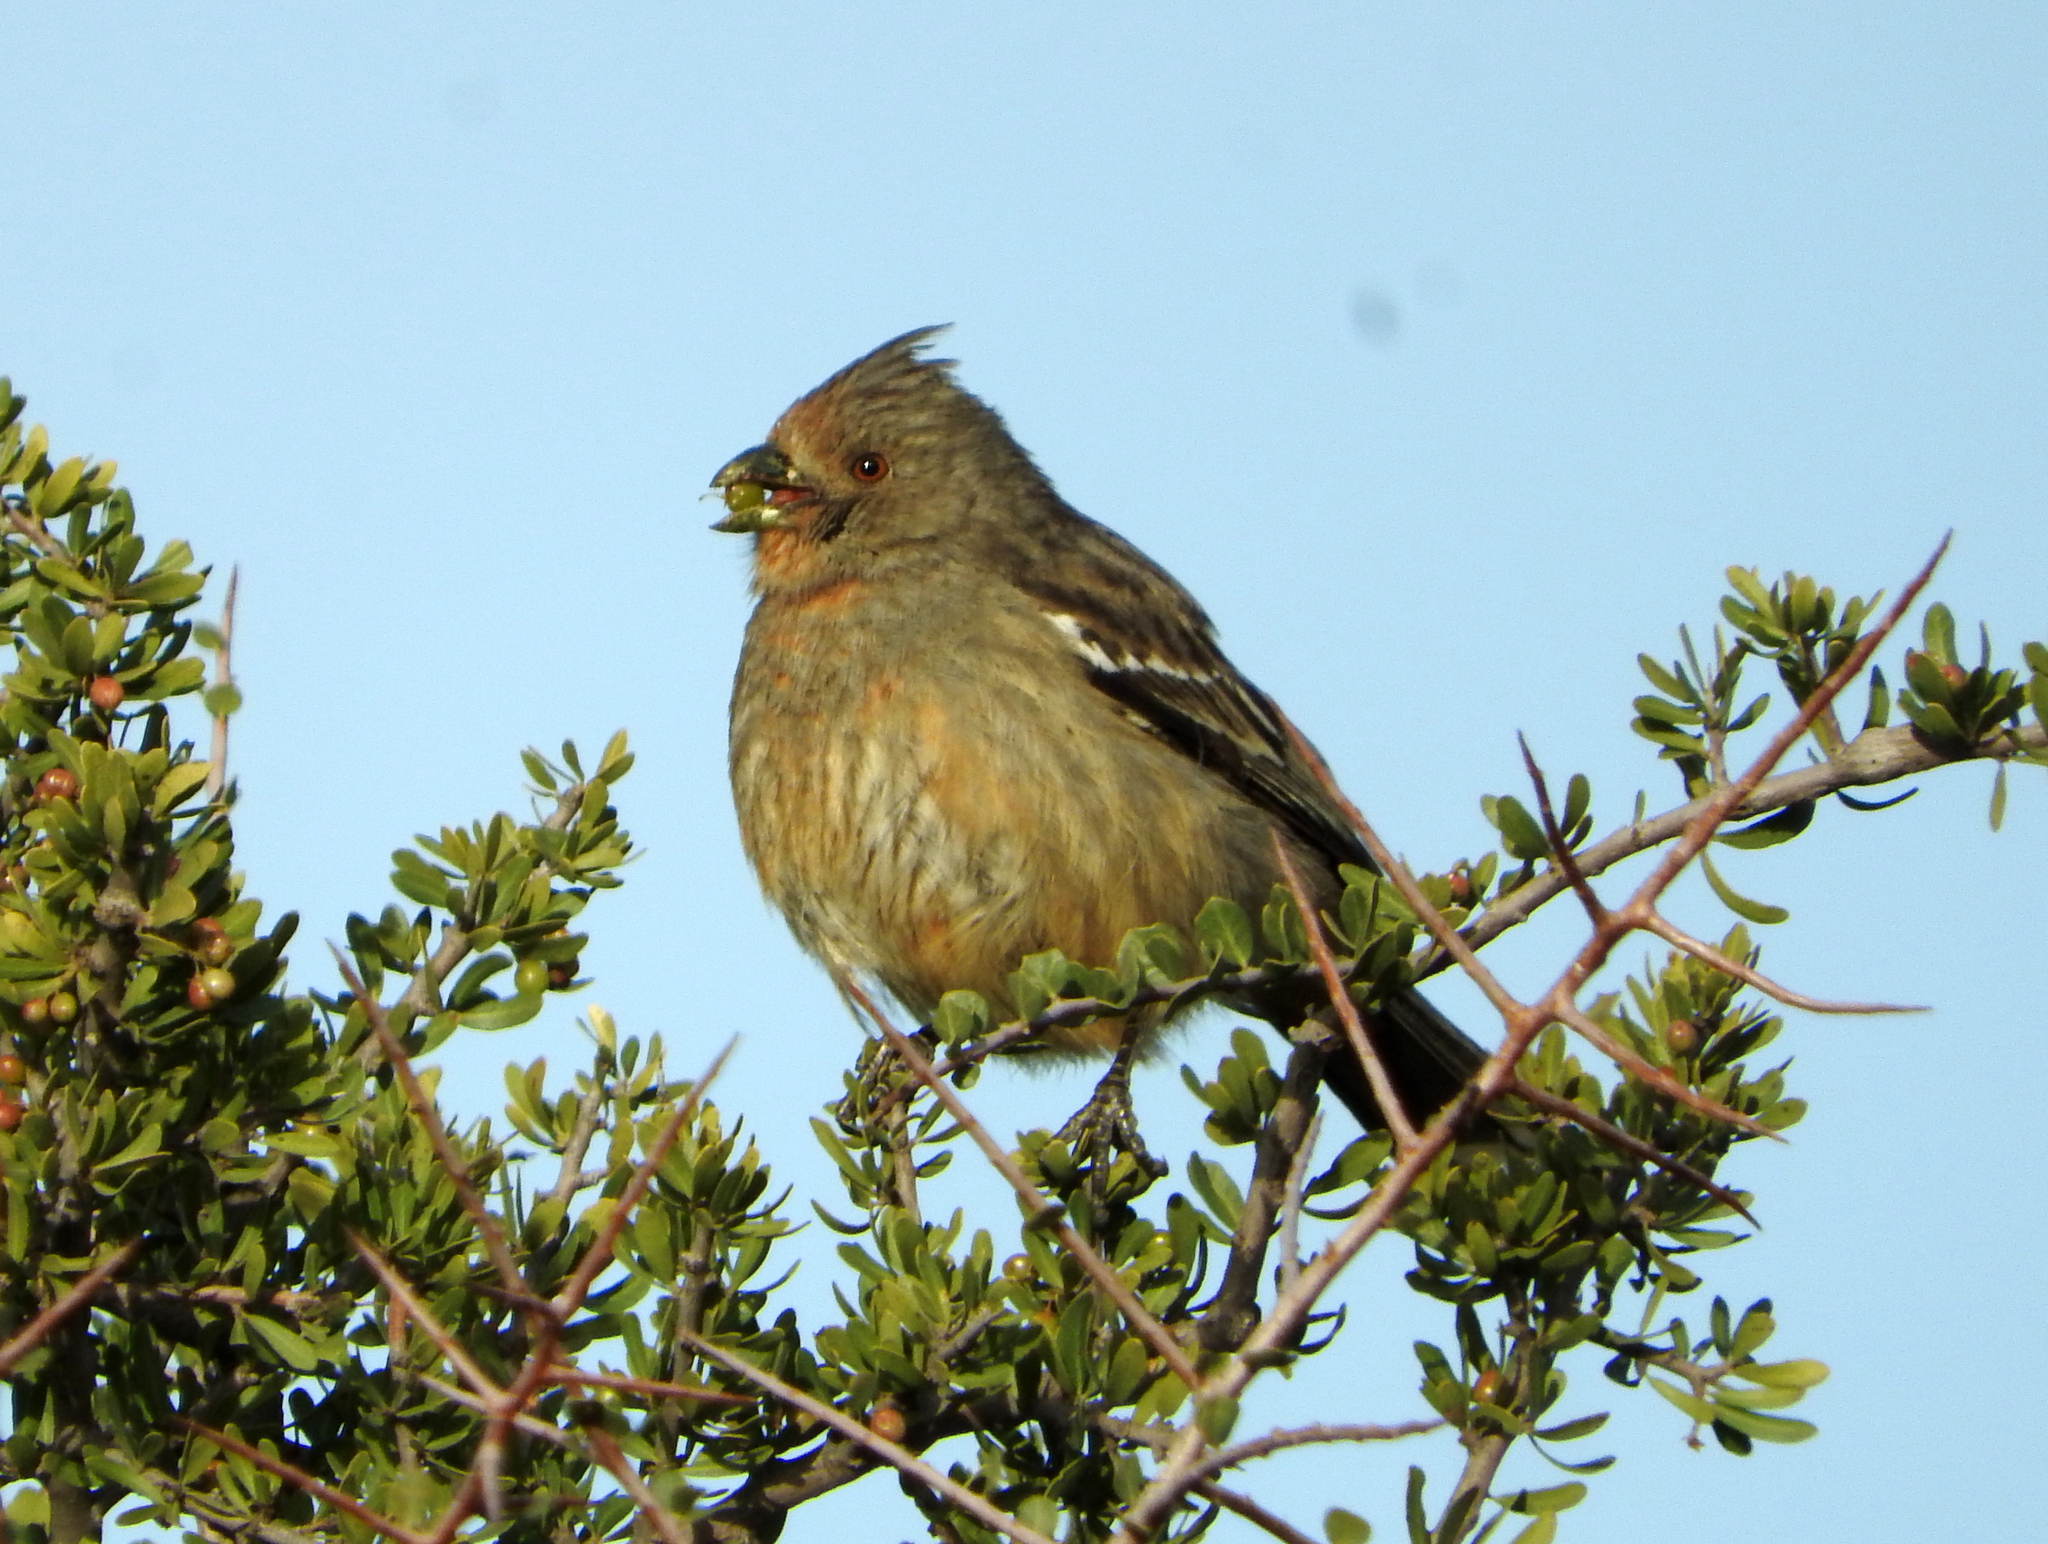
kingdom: Animalia
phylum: Chordata
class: Aves
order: Passeriformes
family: Cotingidae
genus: Phytotoma
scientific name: Phytotoma rutila
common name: White-tipped plantcutter
